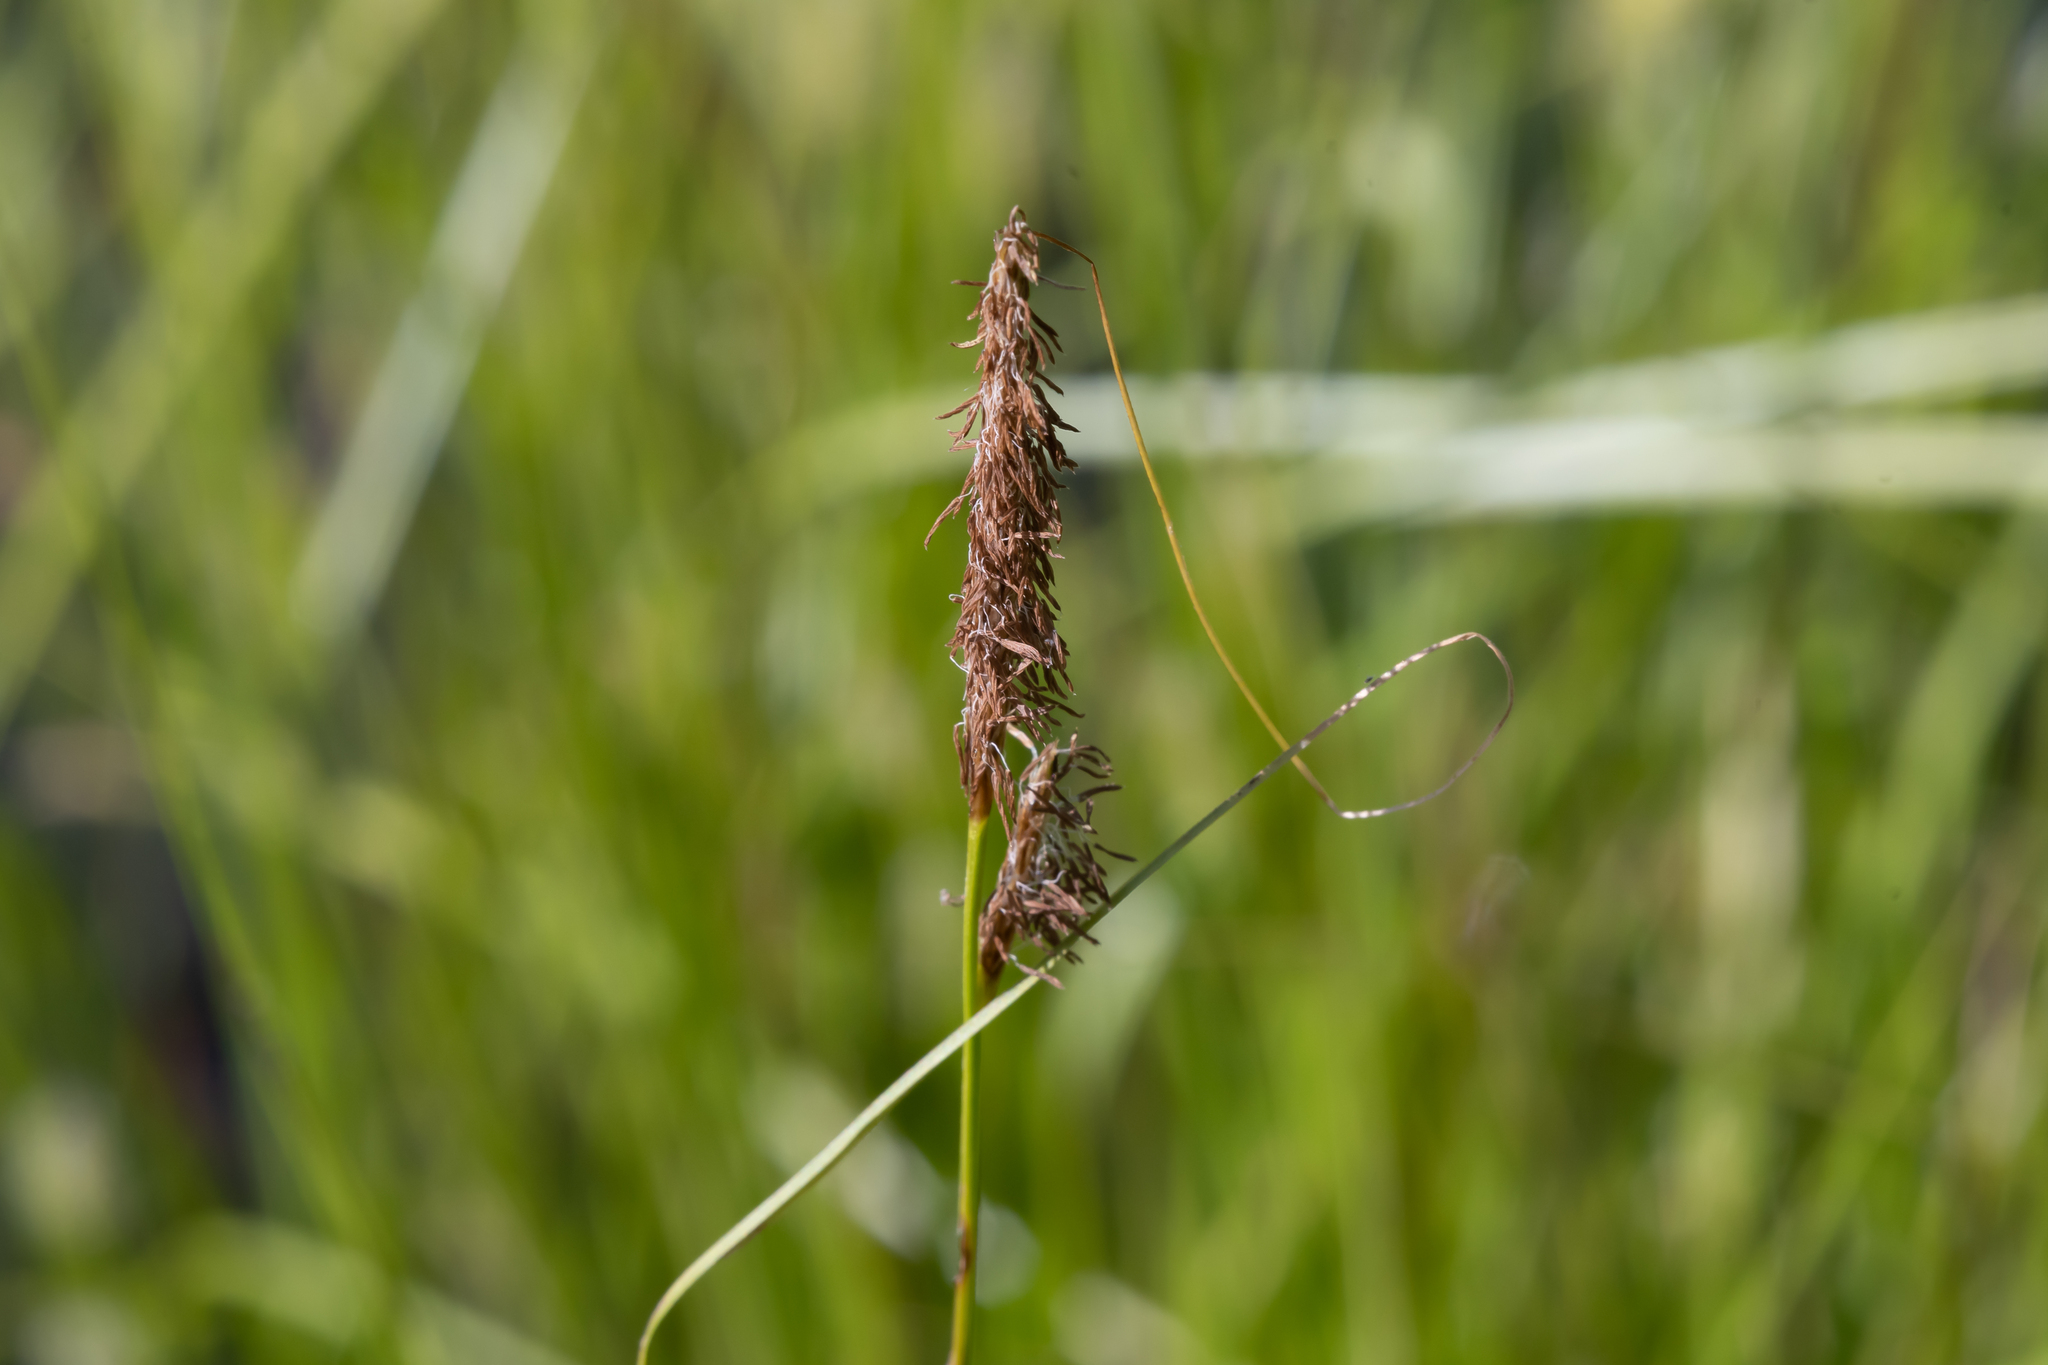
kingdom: Plantae
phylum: Tracheophyta
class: Liliopsida
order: Poales
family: Cyperaceae
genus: Carex
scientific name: Carex vesicaria
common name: Bladder-sedge
